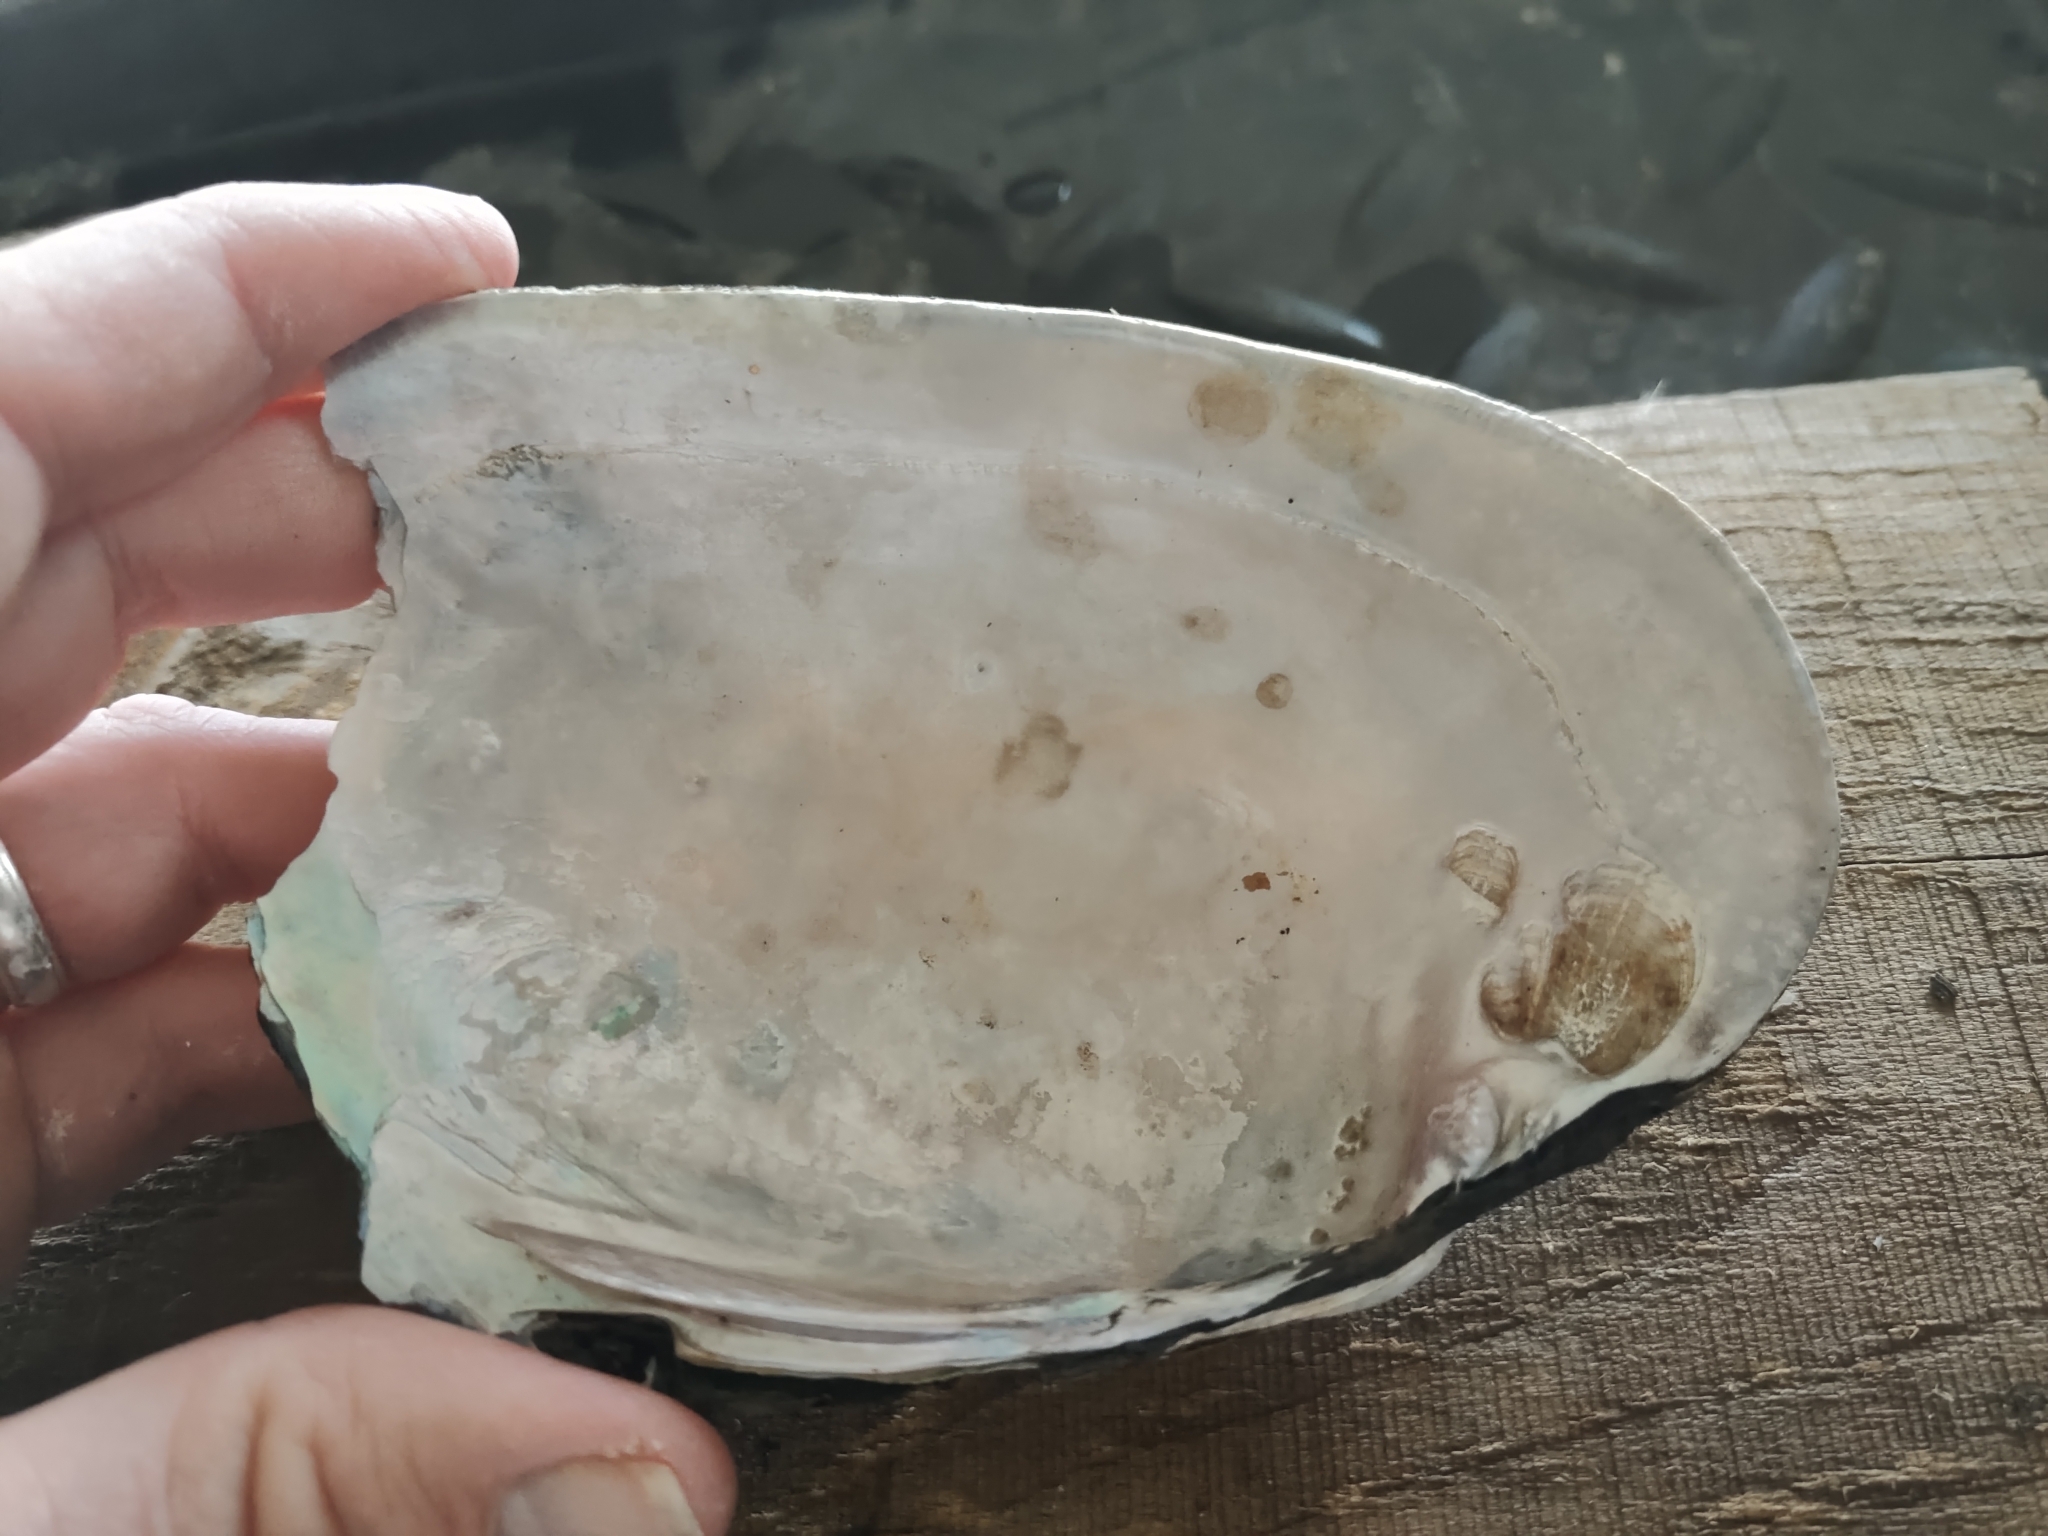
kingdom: Animalia
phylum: Mollusca
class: Bivalvia
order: Unionida
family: Unionidae
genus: Potamilus
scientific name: Potamilus alatus
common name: Pink heelsplitter
